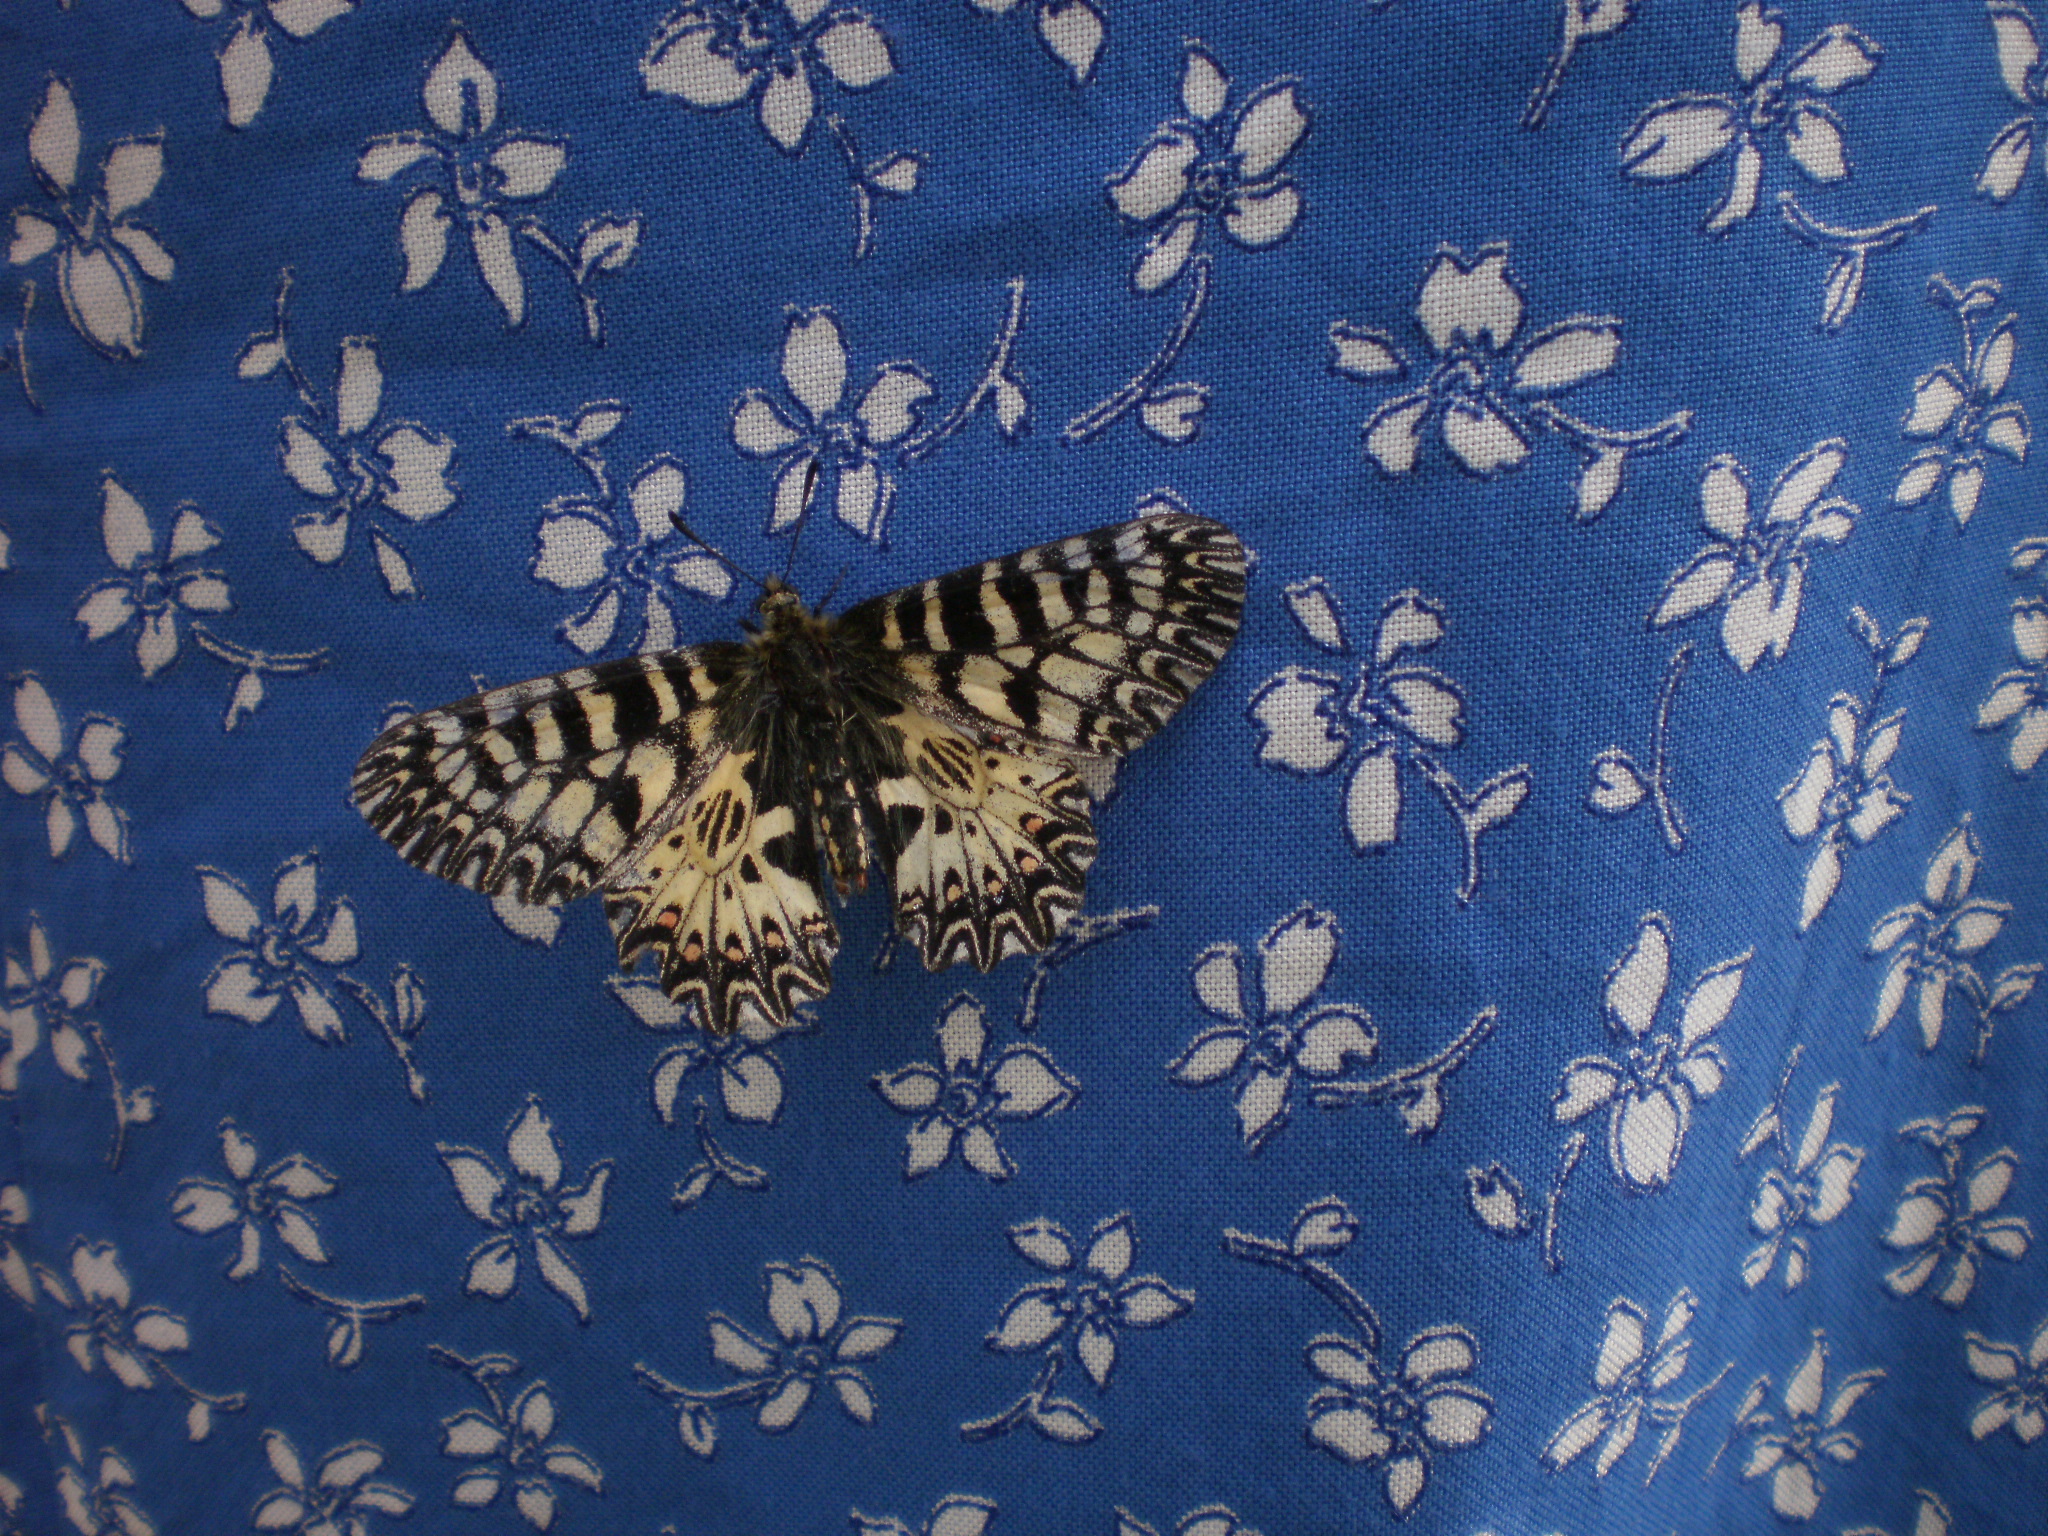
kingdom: Animalia
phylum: Arthropoda
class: Insecta
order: Lepidoptera
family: Papilionidae
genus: Zerynthia
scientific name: Zerynthia polyxena
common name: Southern festoon
